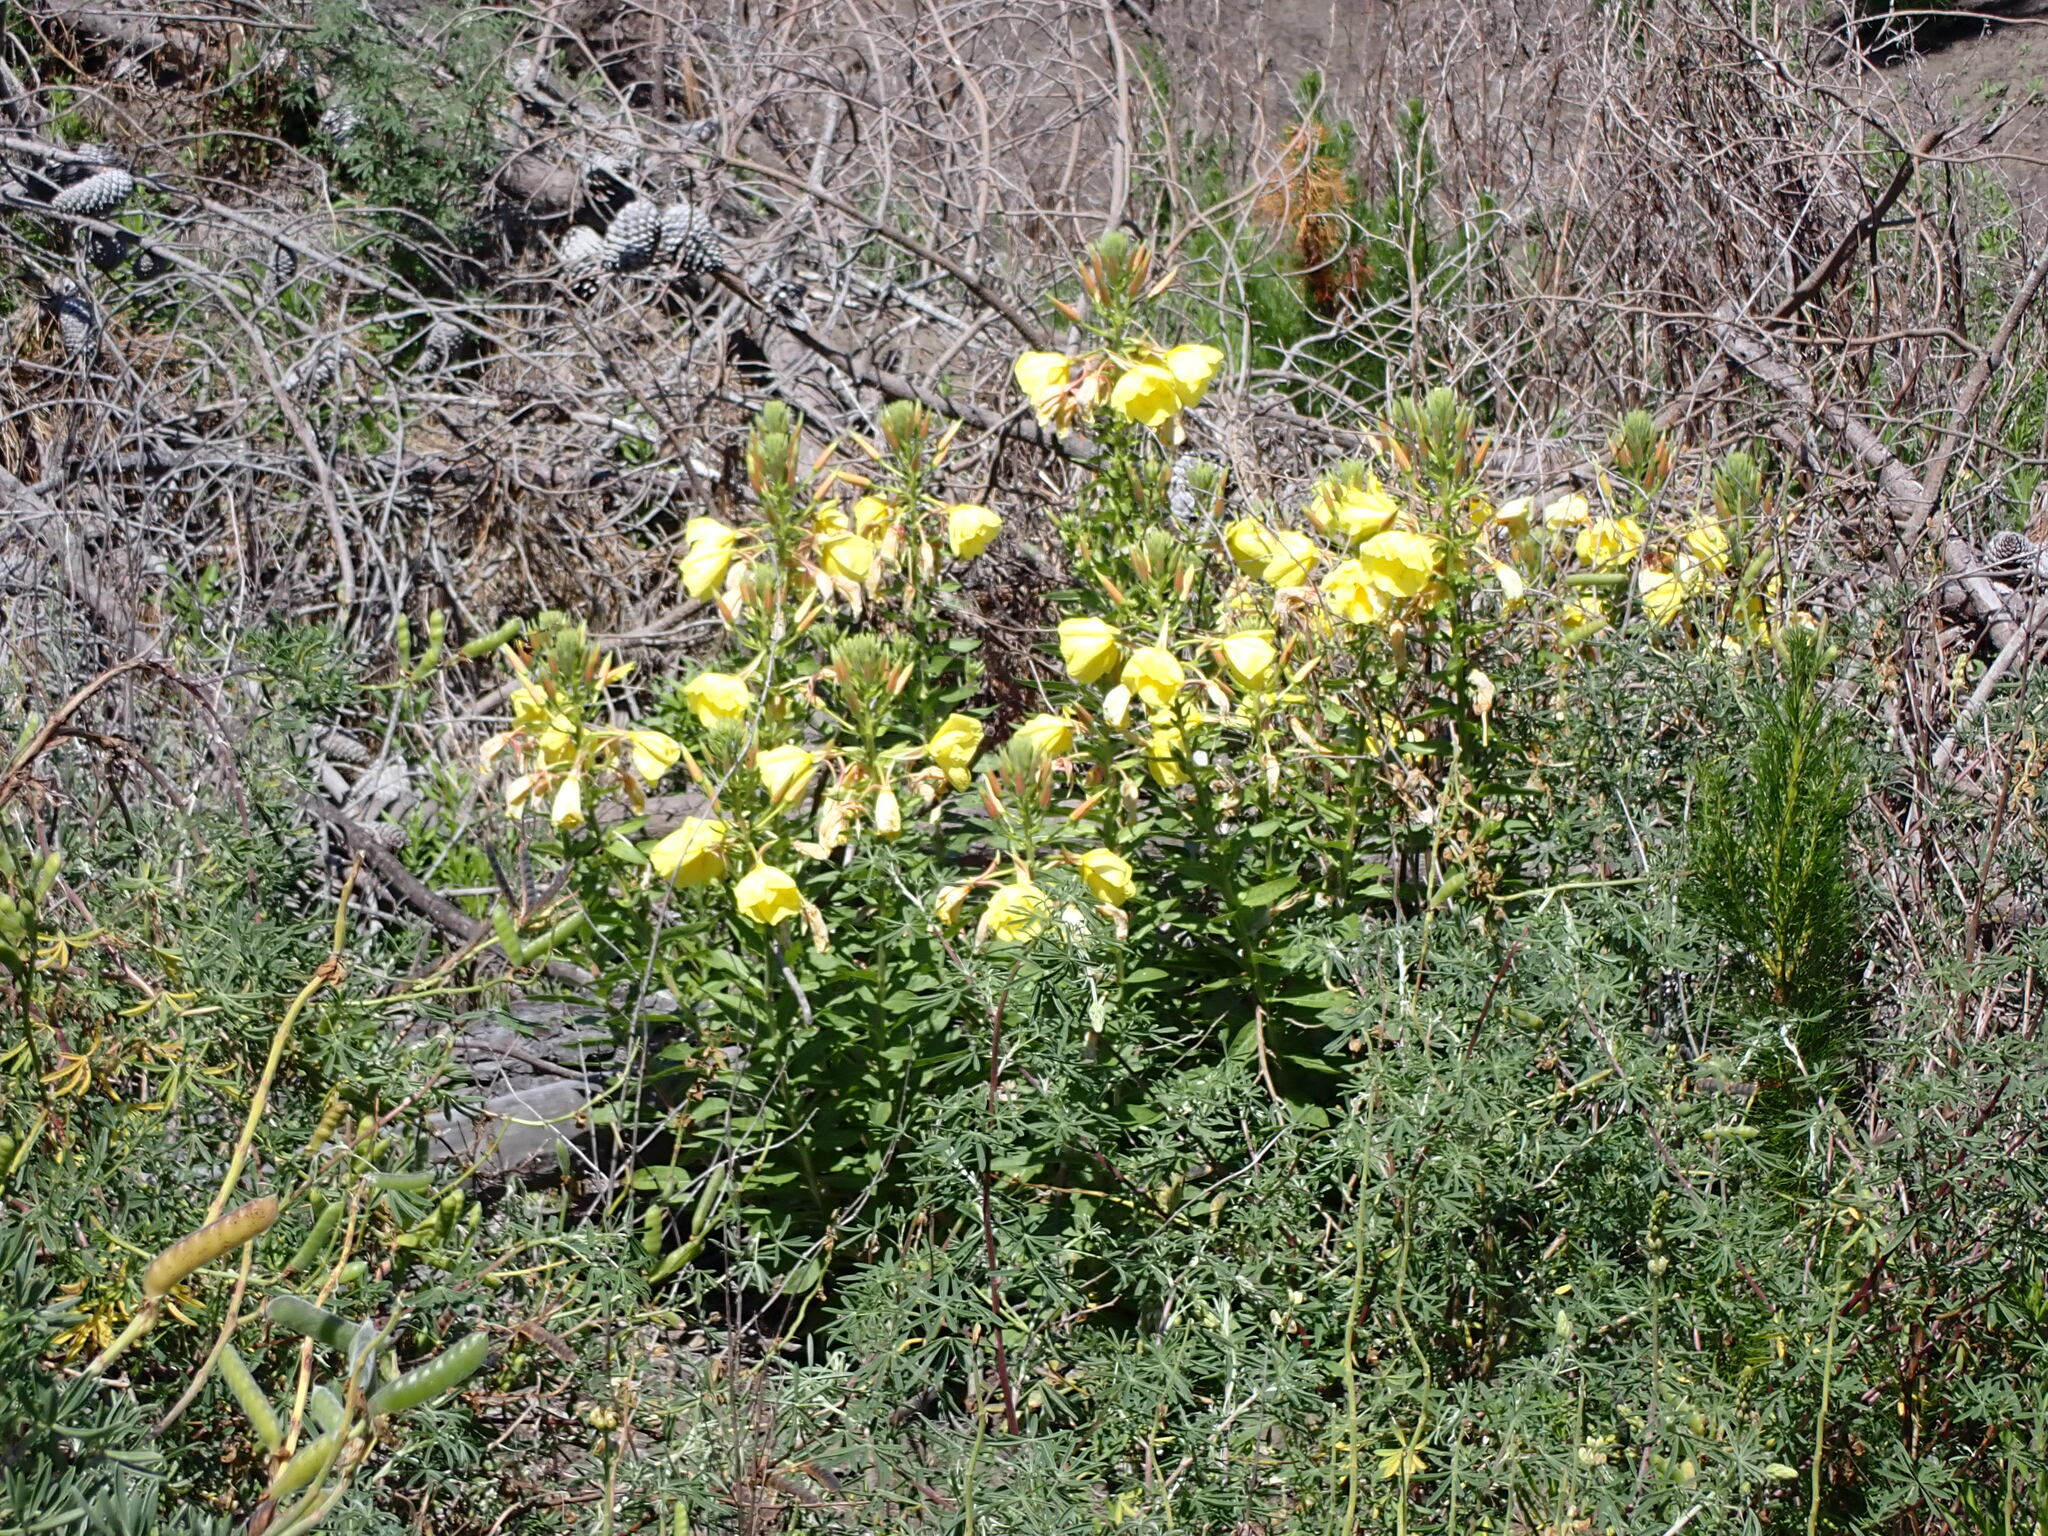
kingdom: Plantae
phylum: Tracheophyta
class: Magnoliopsida
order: Myrtales
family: Onagraceae
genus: Oenothera
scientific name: Oenothera glazioviana
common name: Large-flowered evening-primrose
